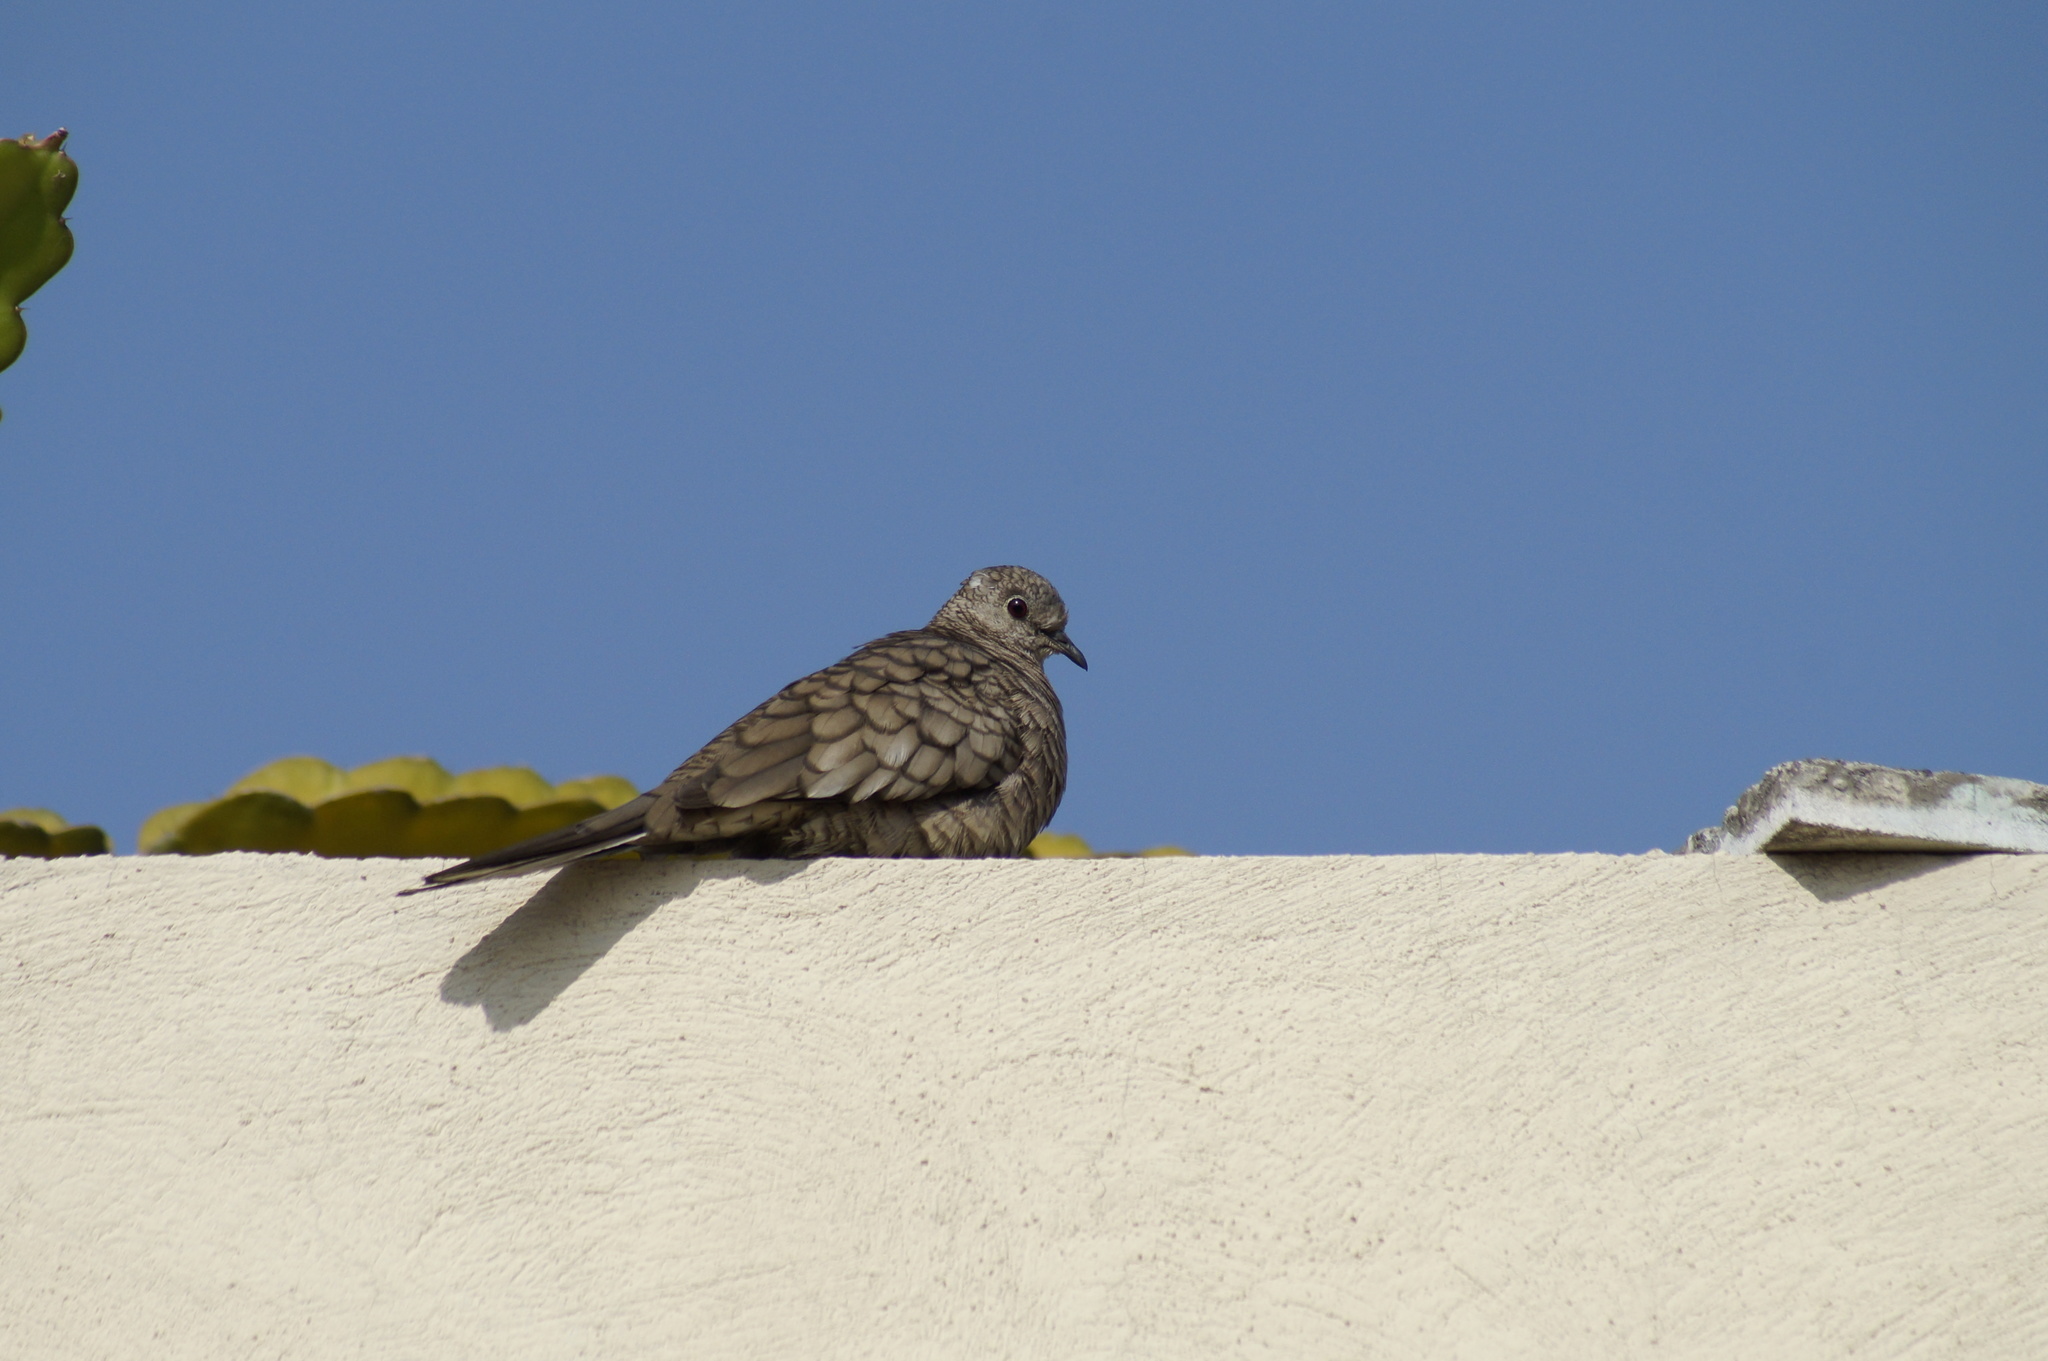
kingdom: Animalia
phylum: Chordata
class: Aves
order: Columbiformes
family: Columbidae
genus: Columbina
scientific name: Columbina inca
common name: Inca dove
